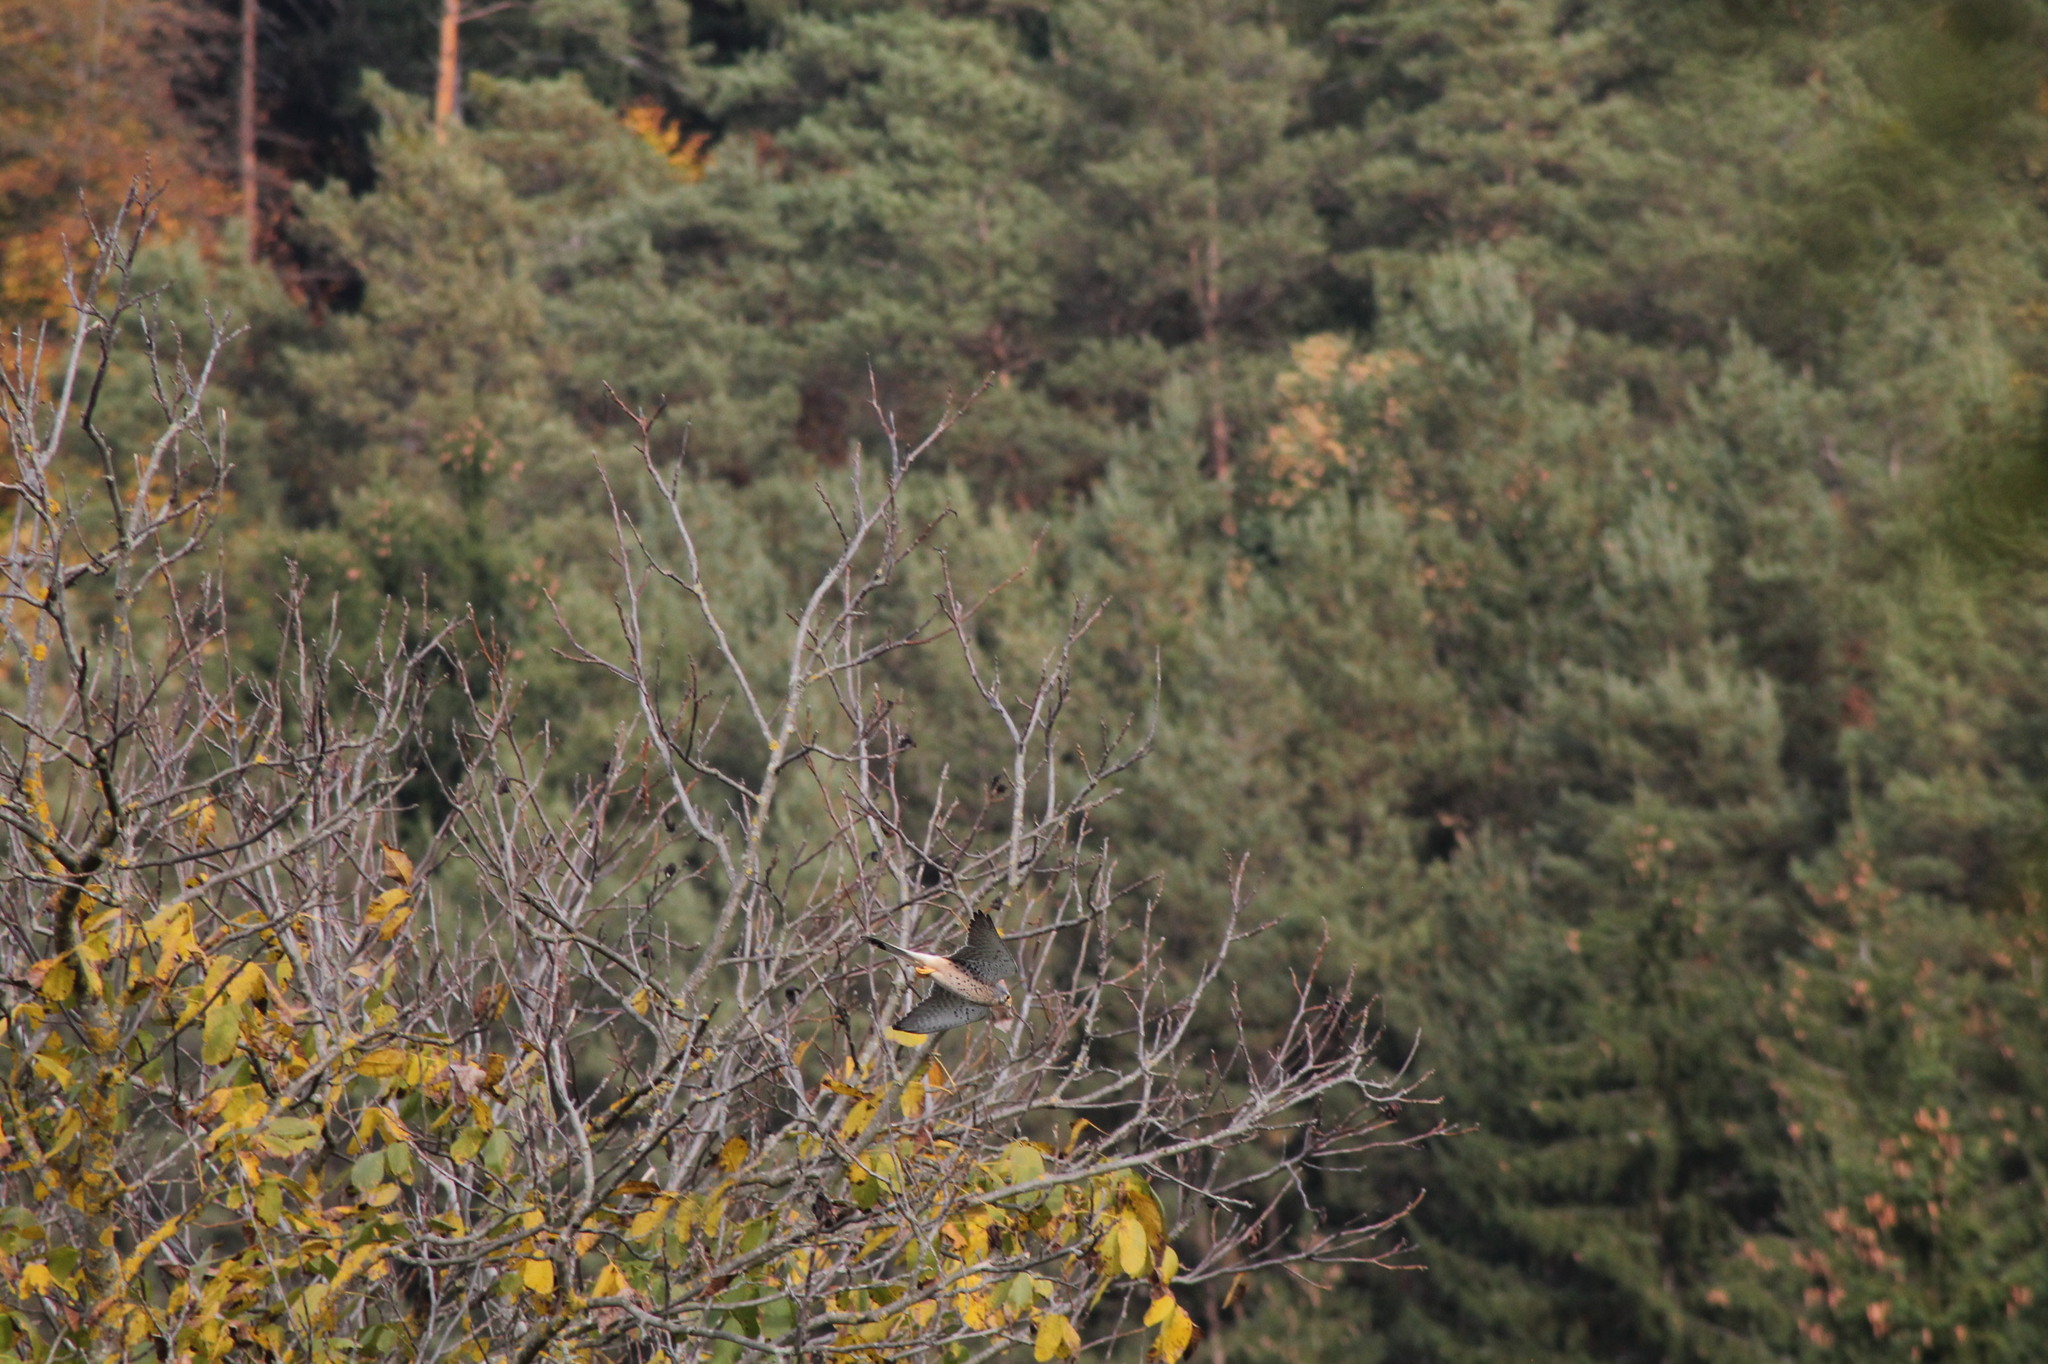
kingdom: Animalia
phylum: Chordata
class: Aves
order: Falconiformes
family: Falconidae
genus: Falco
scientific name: Falco tinnunculus
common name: Common kestrel
